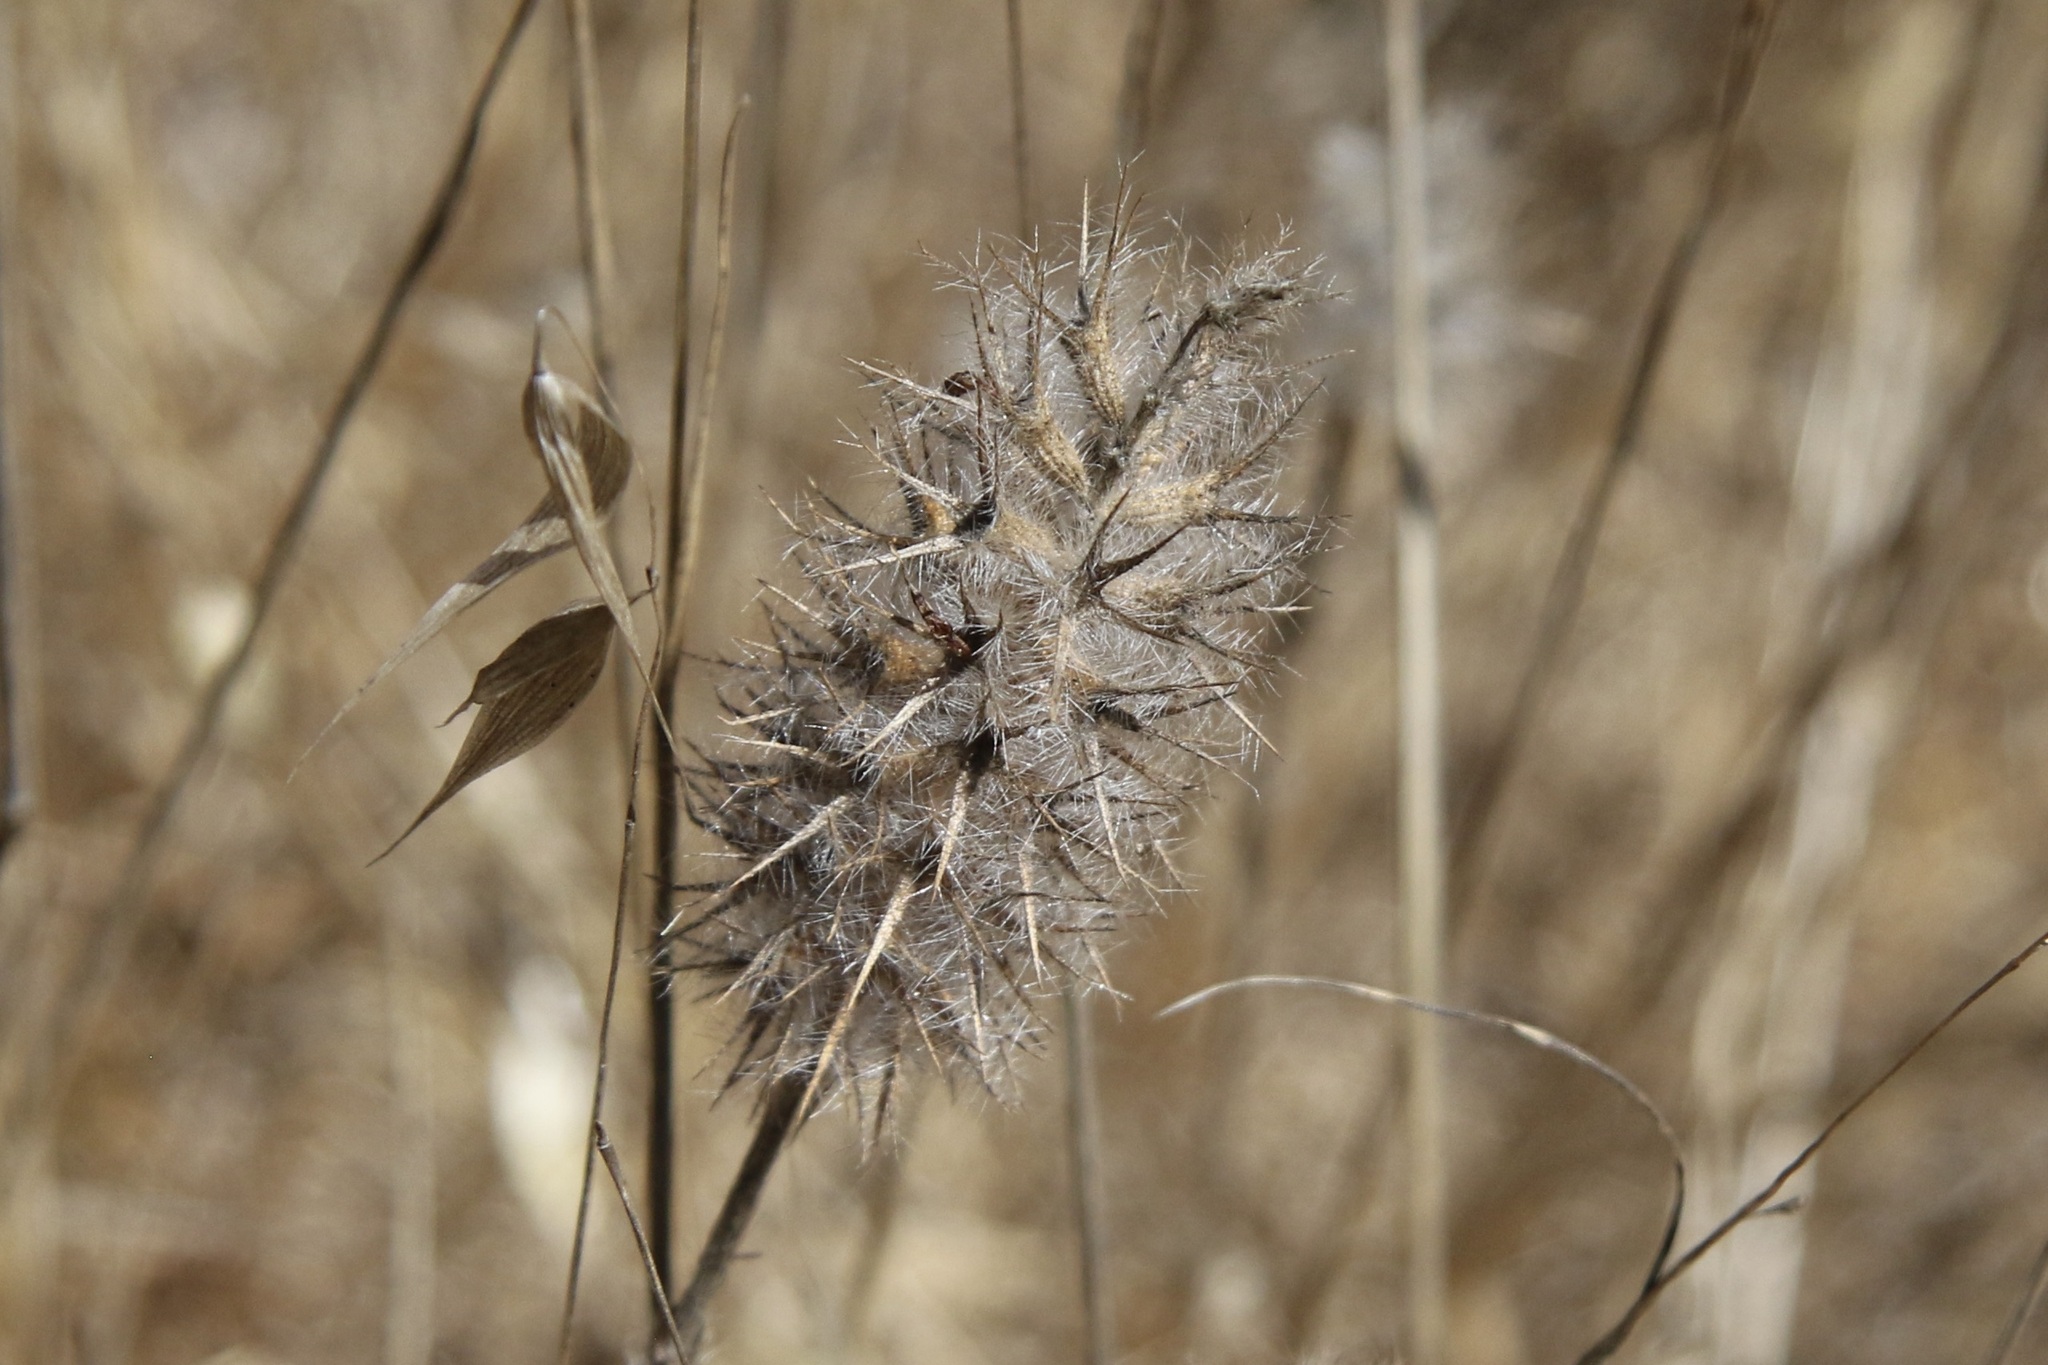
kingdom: Plantae
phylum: Tracheophyta
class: Magnoliopsida
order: Fabales
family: Fabaceae
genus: Trifolium
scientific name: Trifolium angustifolium
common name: Narrow clover
